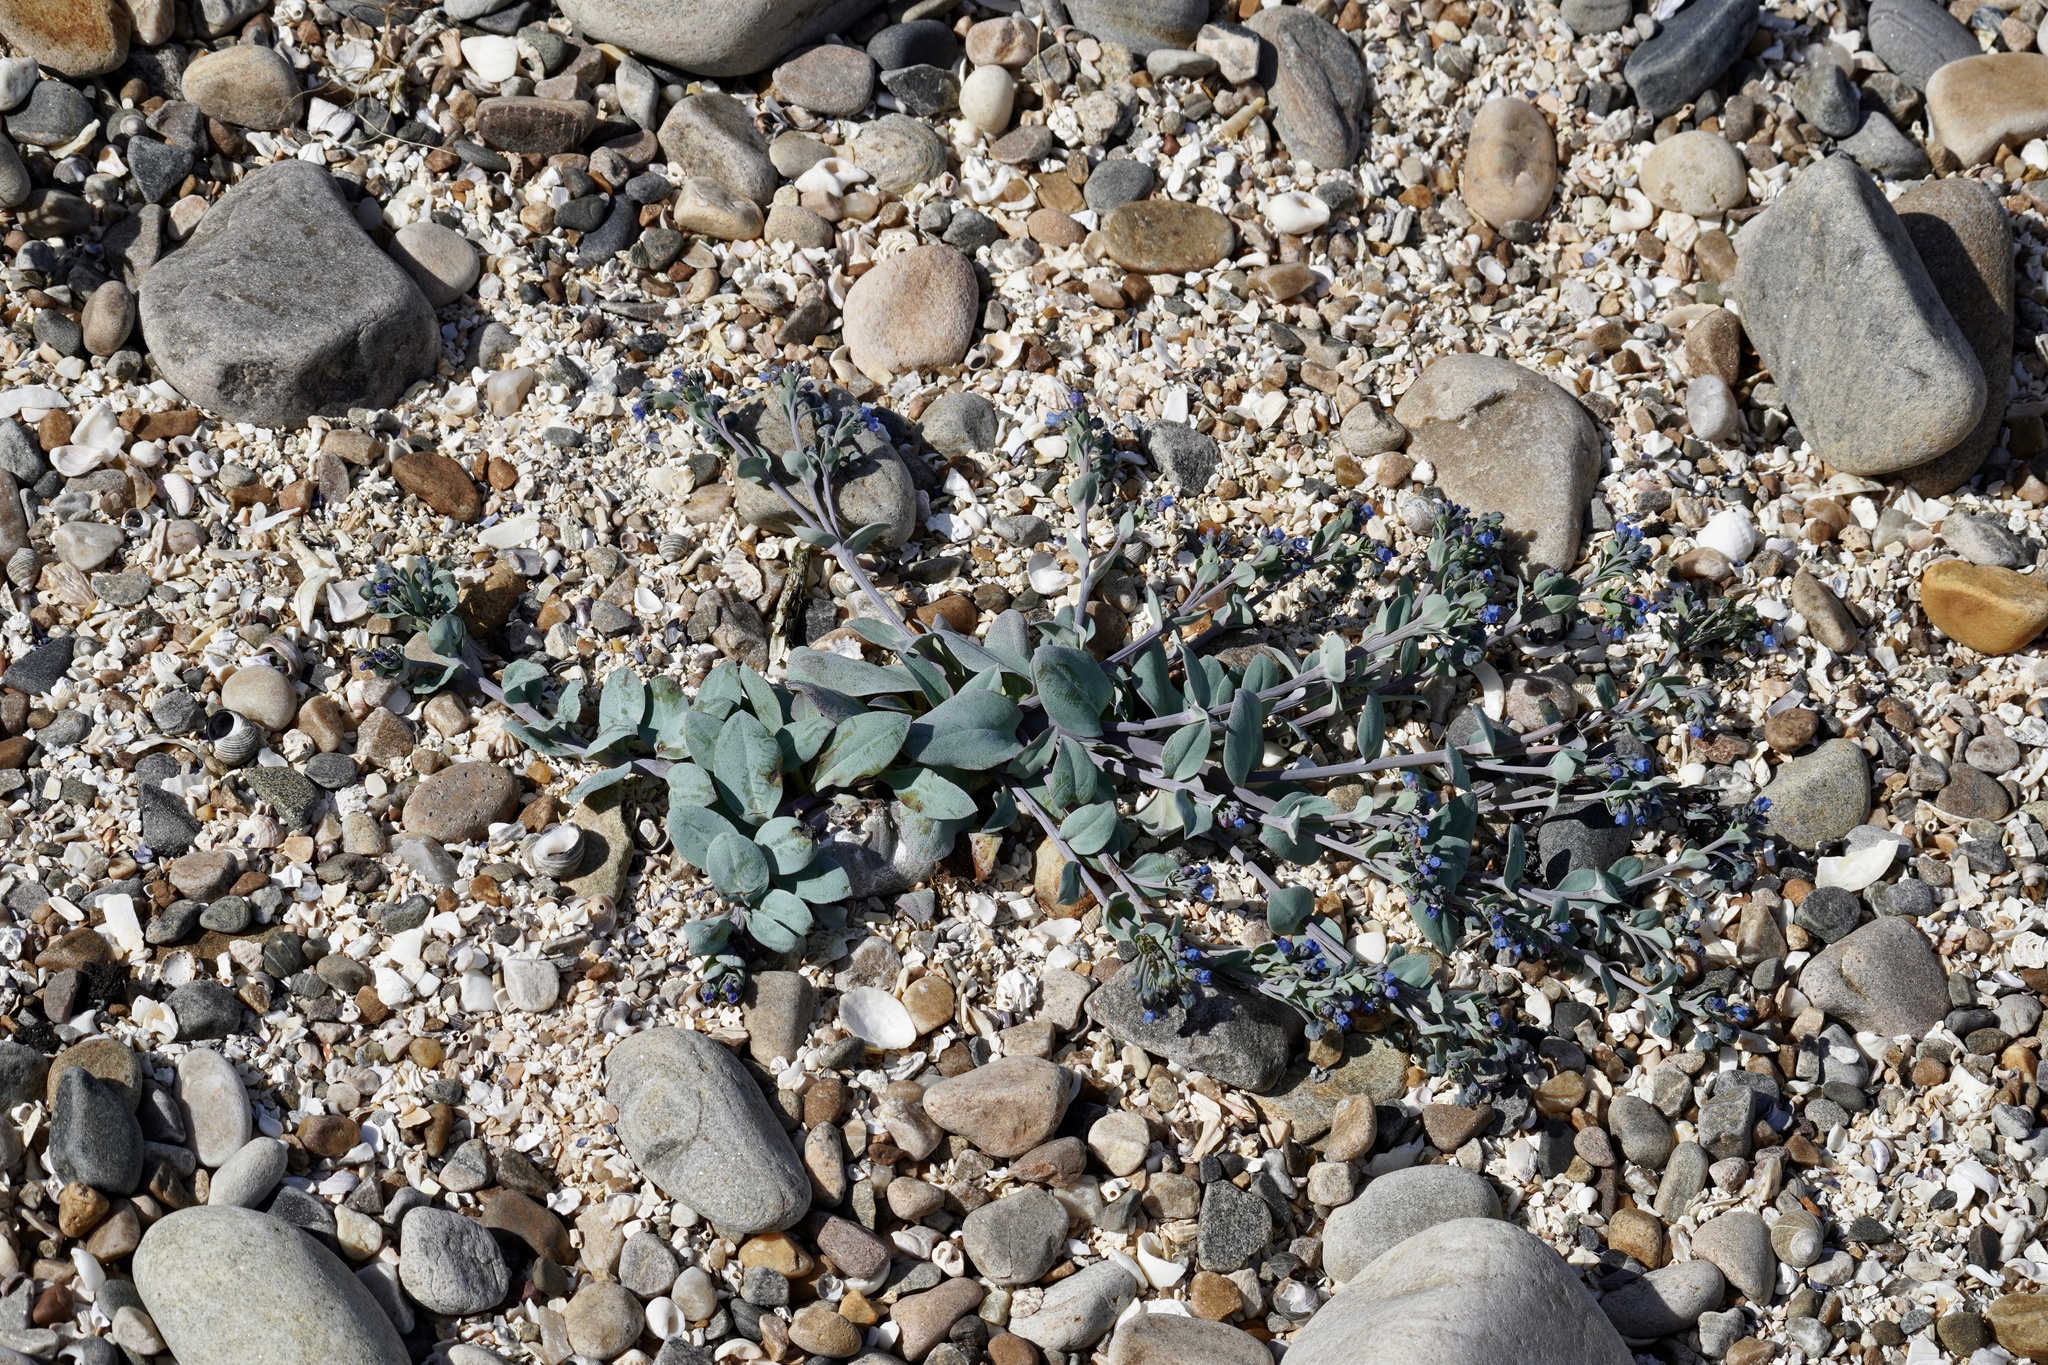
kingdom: Plantae
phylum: Tracheophyta
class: Magnoliopsida
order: Boraginales
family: Boraginaceae
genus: Mertensia
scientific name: Mertensia maritima
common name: Oysterplant
